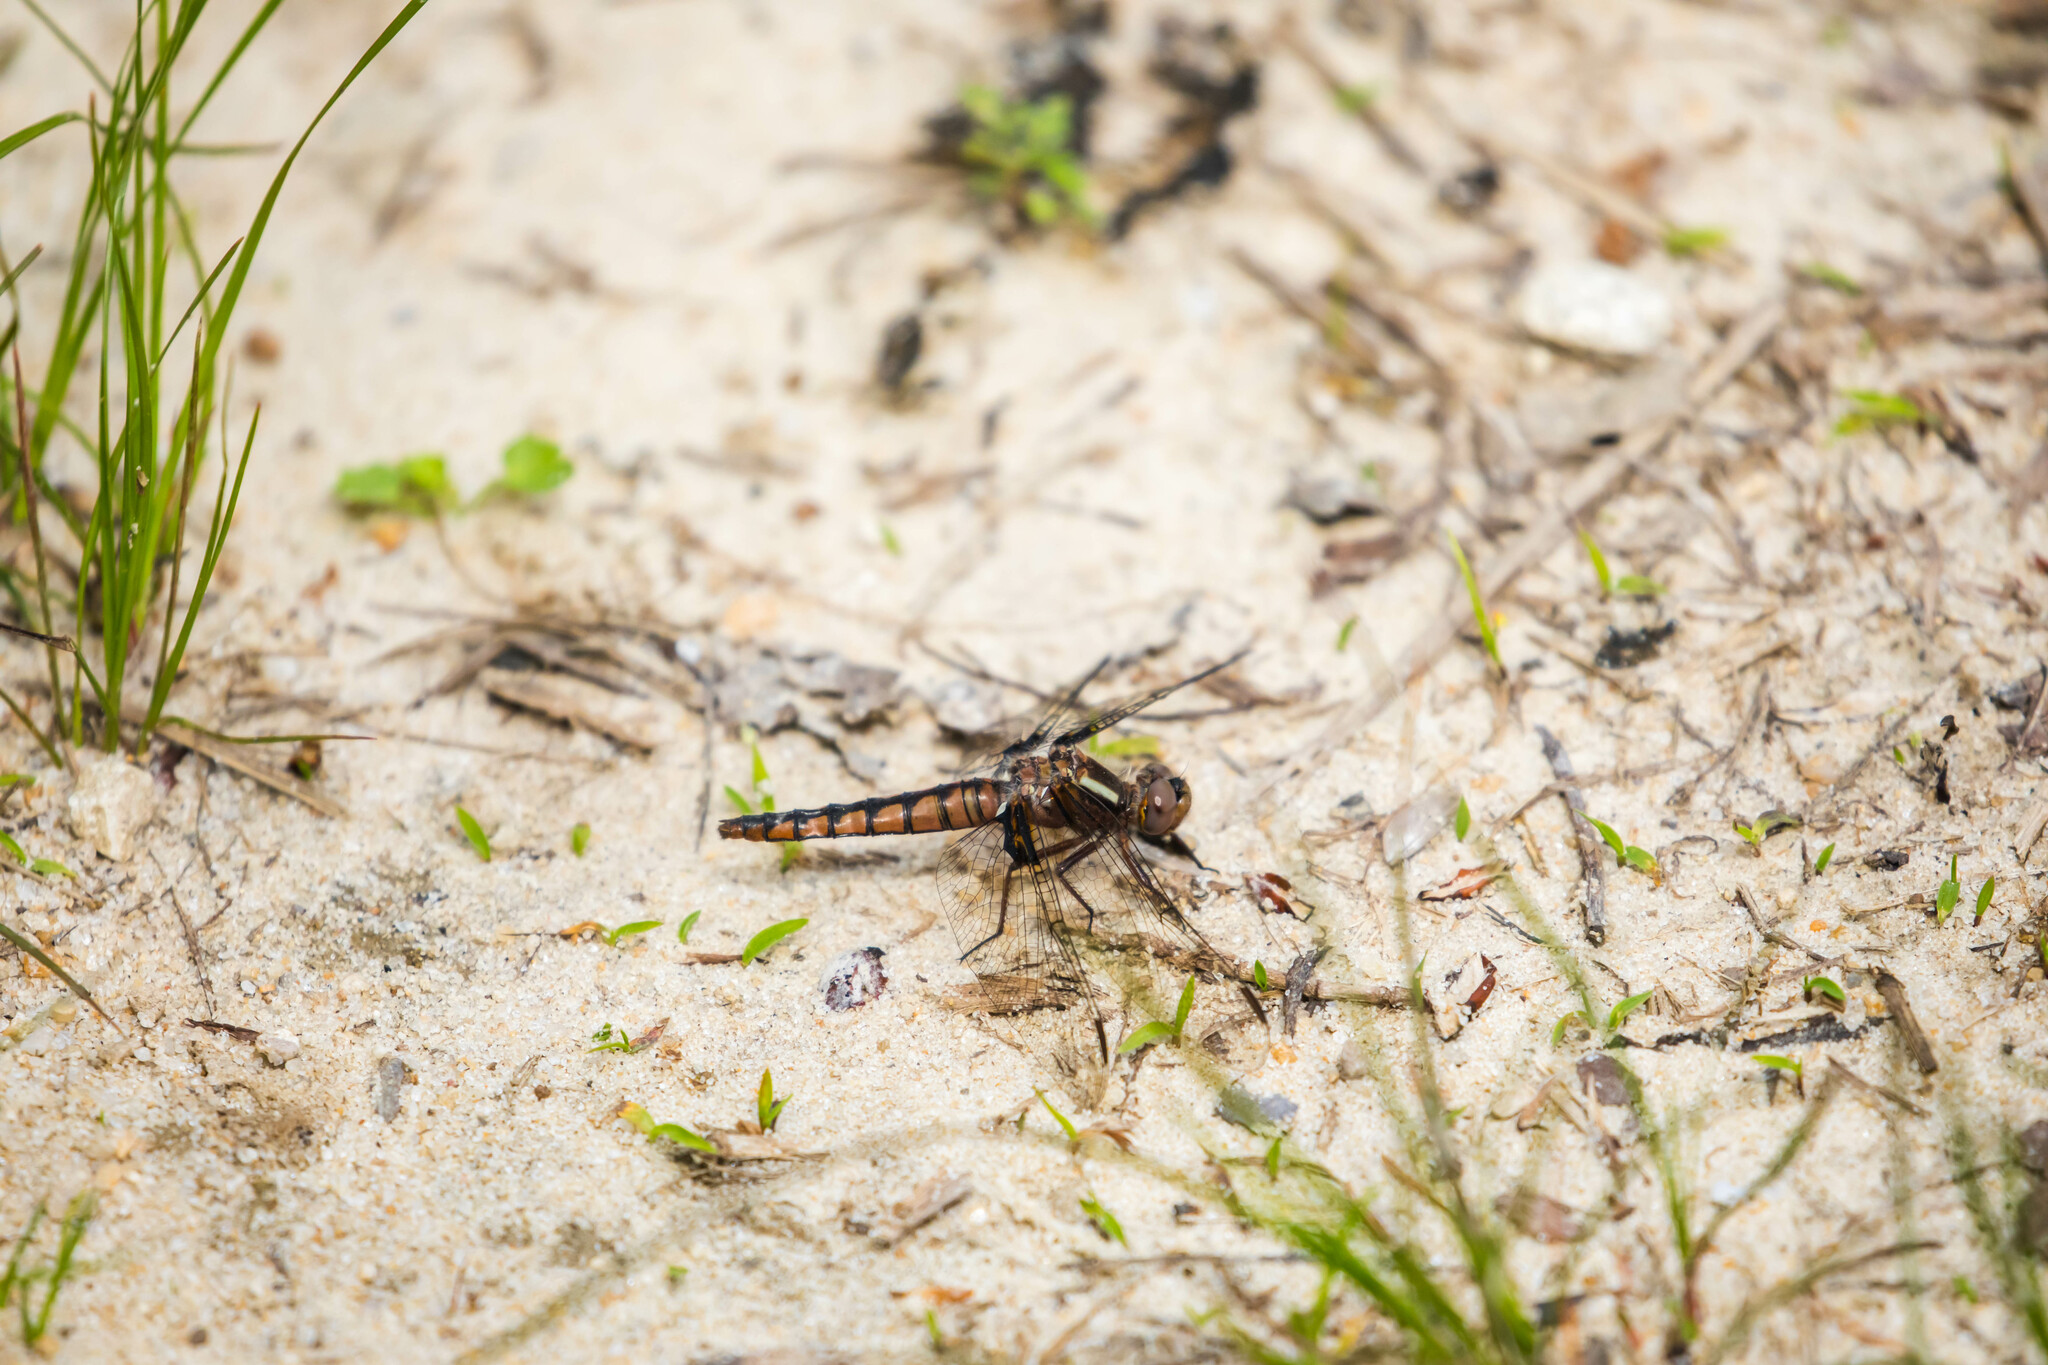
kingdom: Animalia
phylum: Arthropoda
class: Insecta
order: Odonata
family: Libellulidae
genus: Ladona
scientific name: Ladona deplanata
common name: Blue corporal
